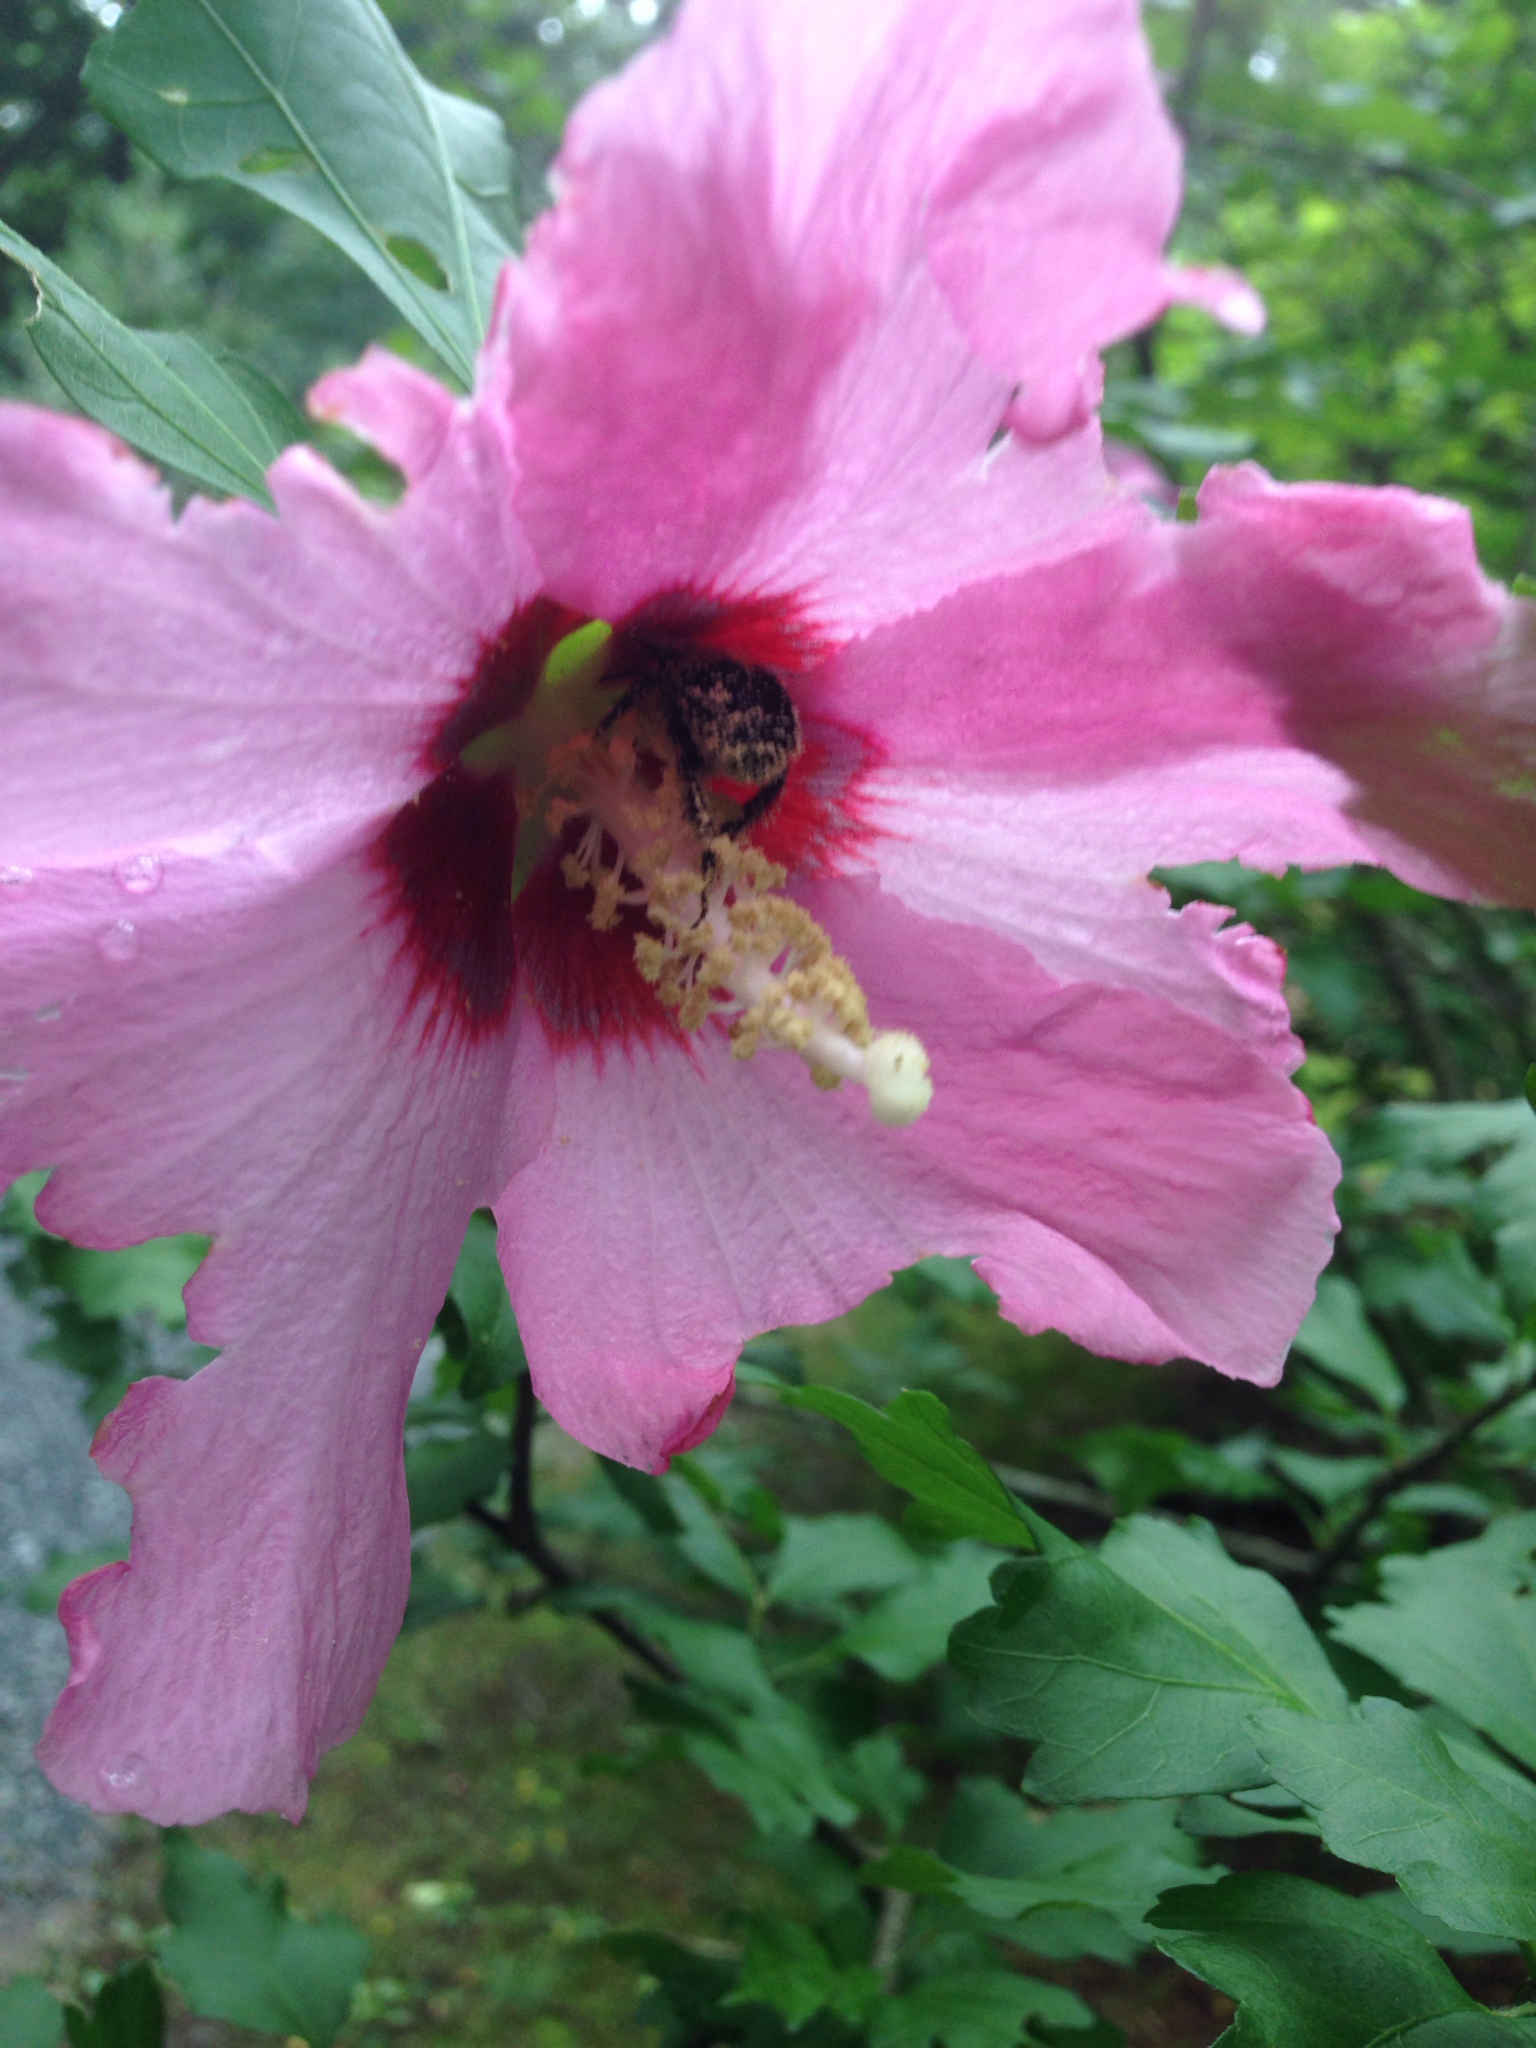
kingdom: Animalia
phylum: Arthropoda
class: Insecta
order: Hymenoptera
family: Apidae
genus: Bombus
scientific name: Bombus
